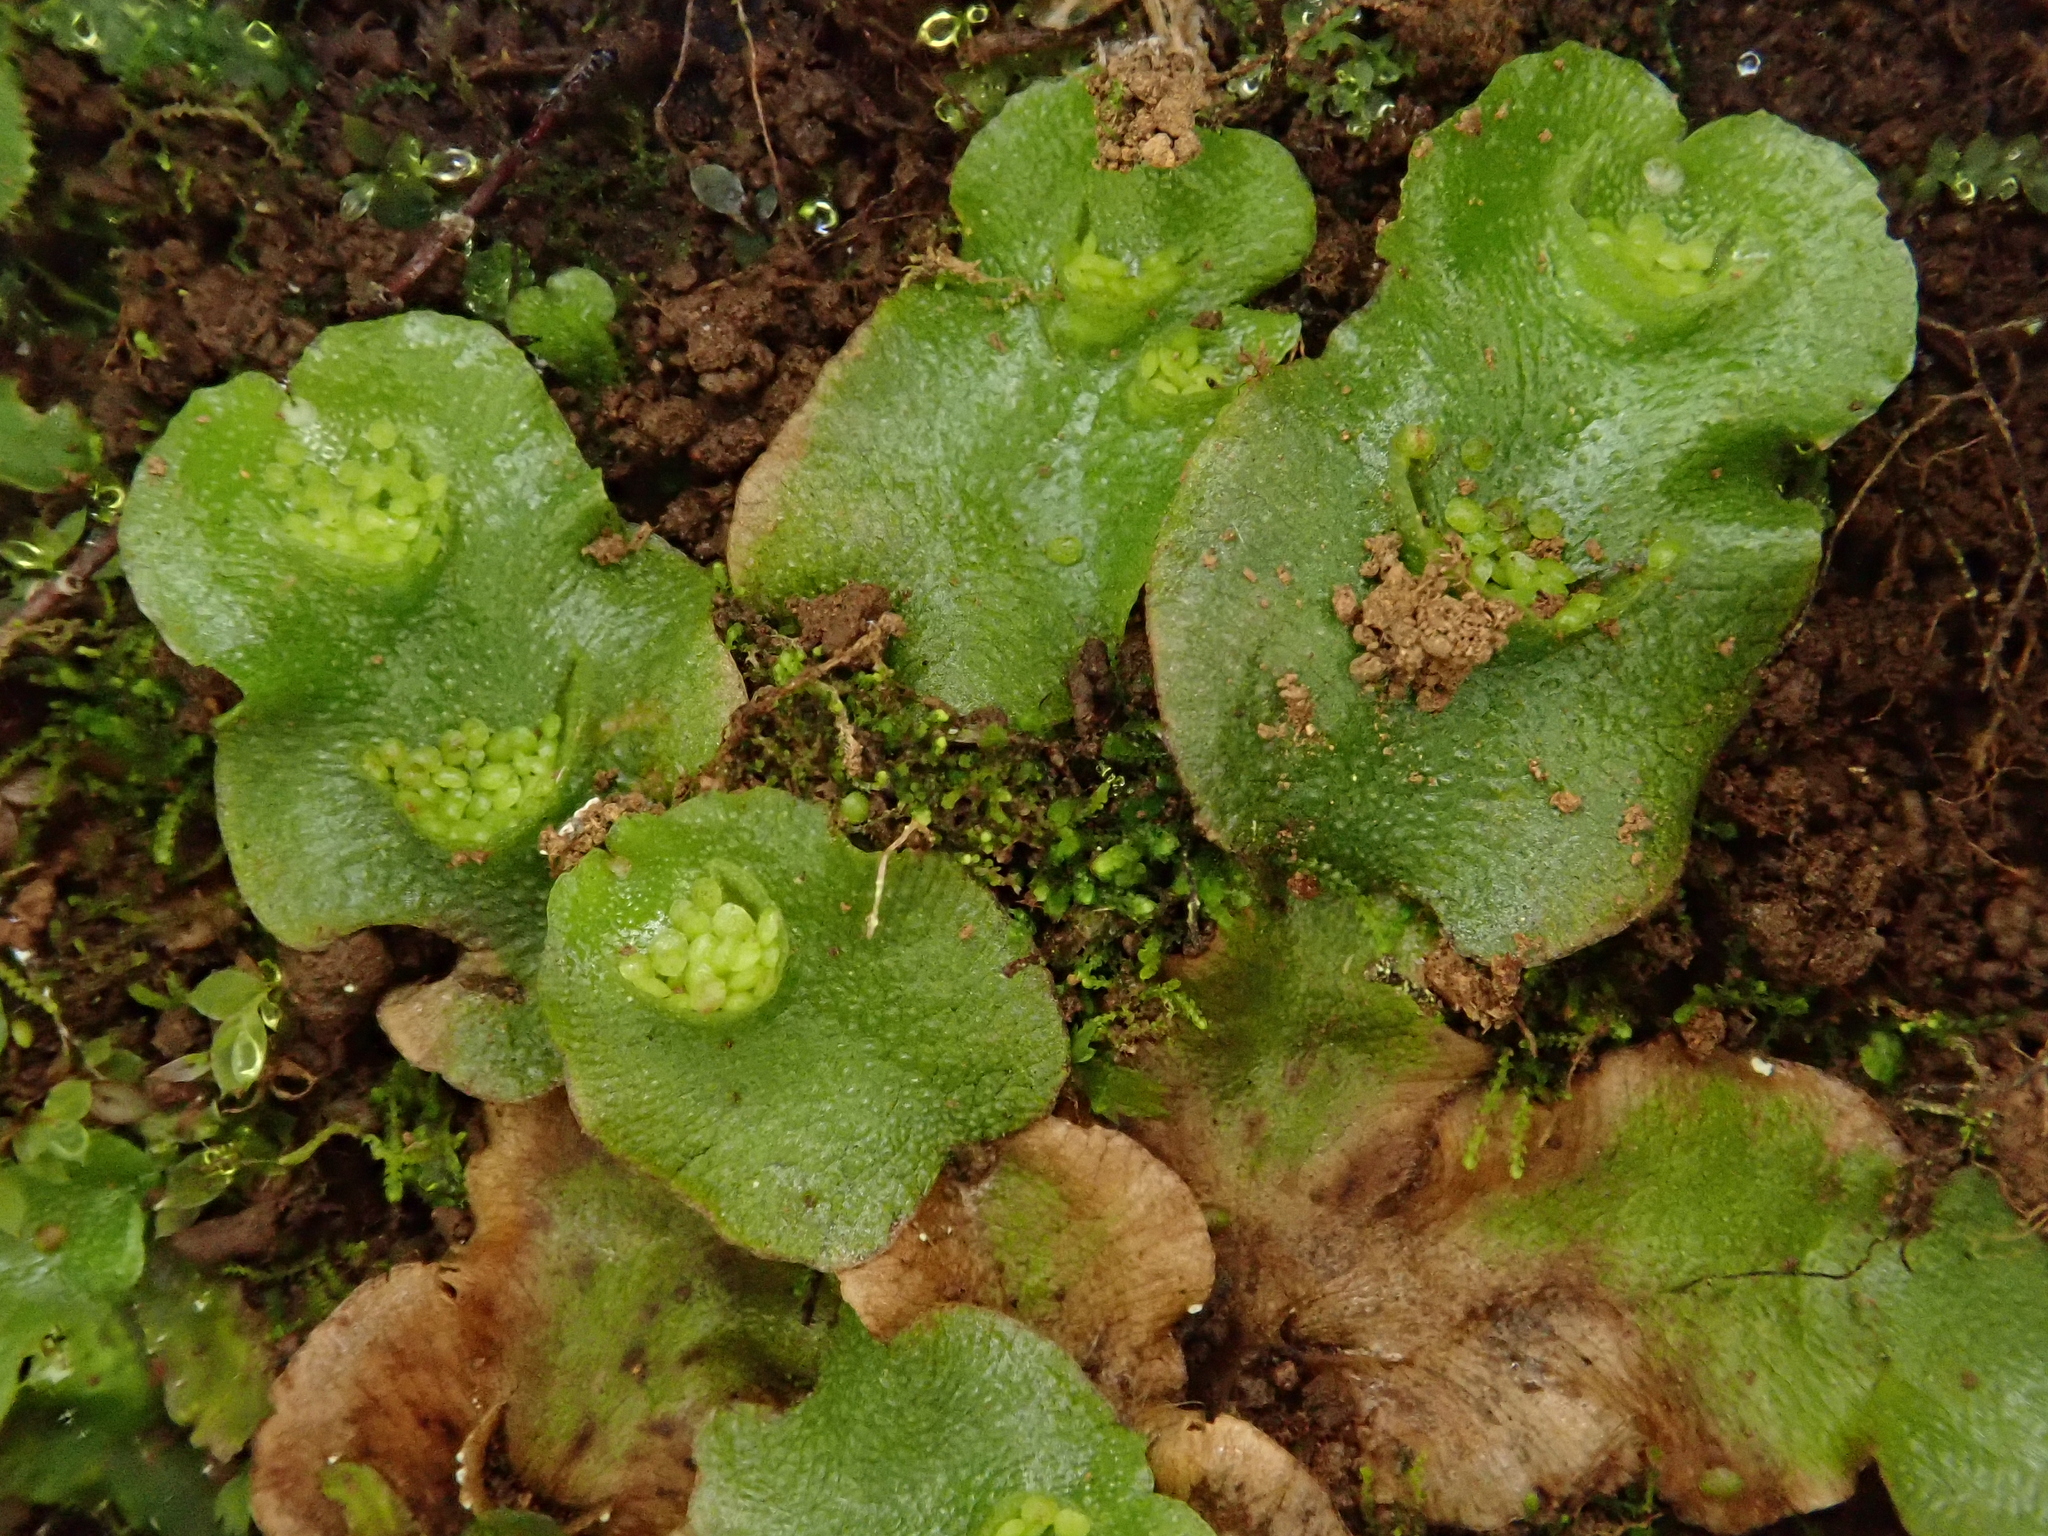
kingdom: Plantae
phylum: Marchantiophyta
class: Marchantiopsida
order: Lunulariales
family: Lunulariaceae
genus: Lunularia
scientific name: Lunularia cruciata
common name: Crescent-cup liverwort
